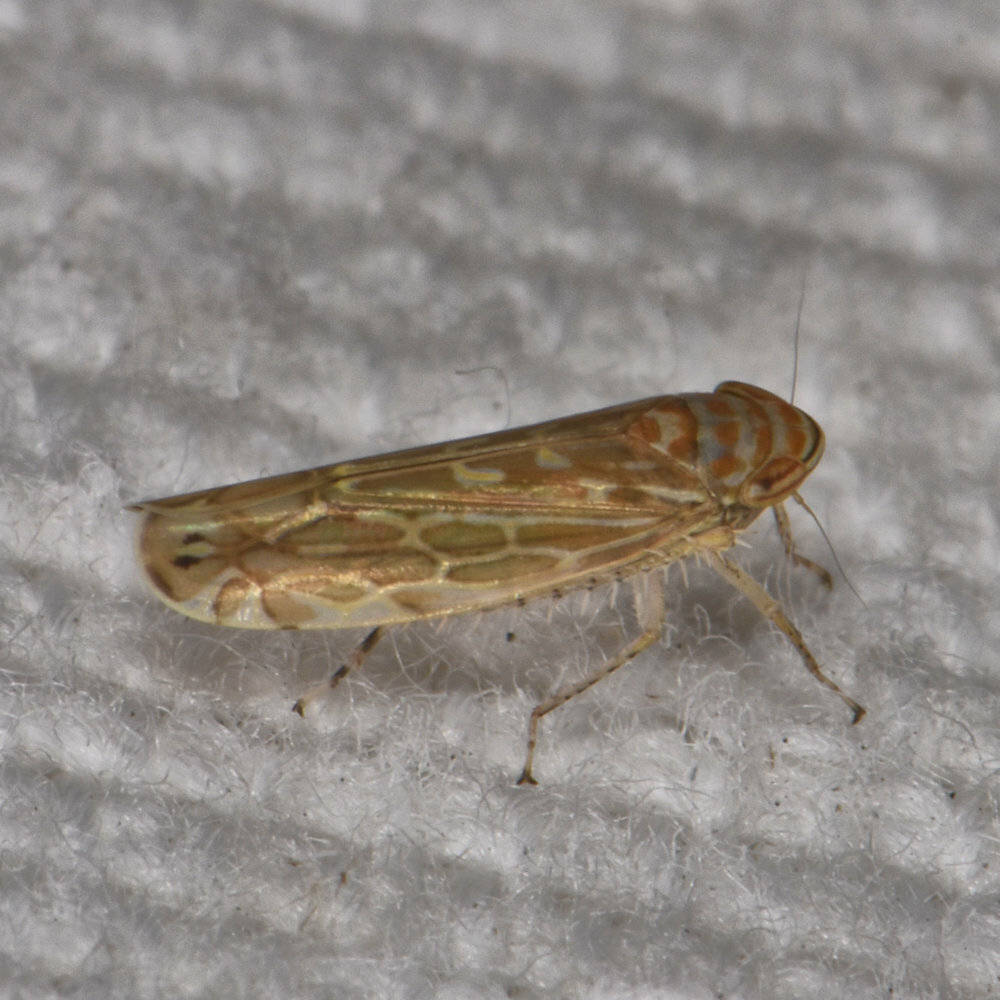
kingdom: Animalia
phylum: Arthropoda
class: Insecta
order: Hemiptera
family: Cicadellidae
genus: Paralimnus
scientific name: Paralimnus phragmitis
